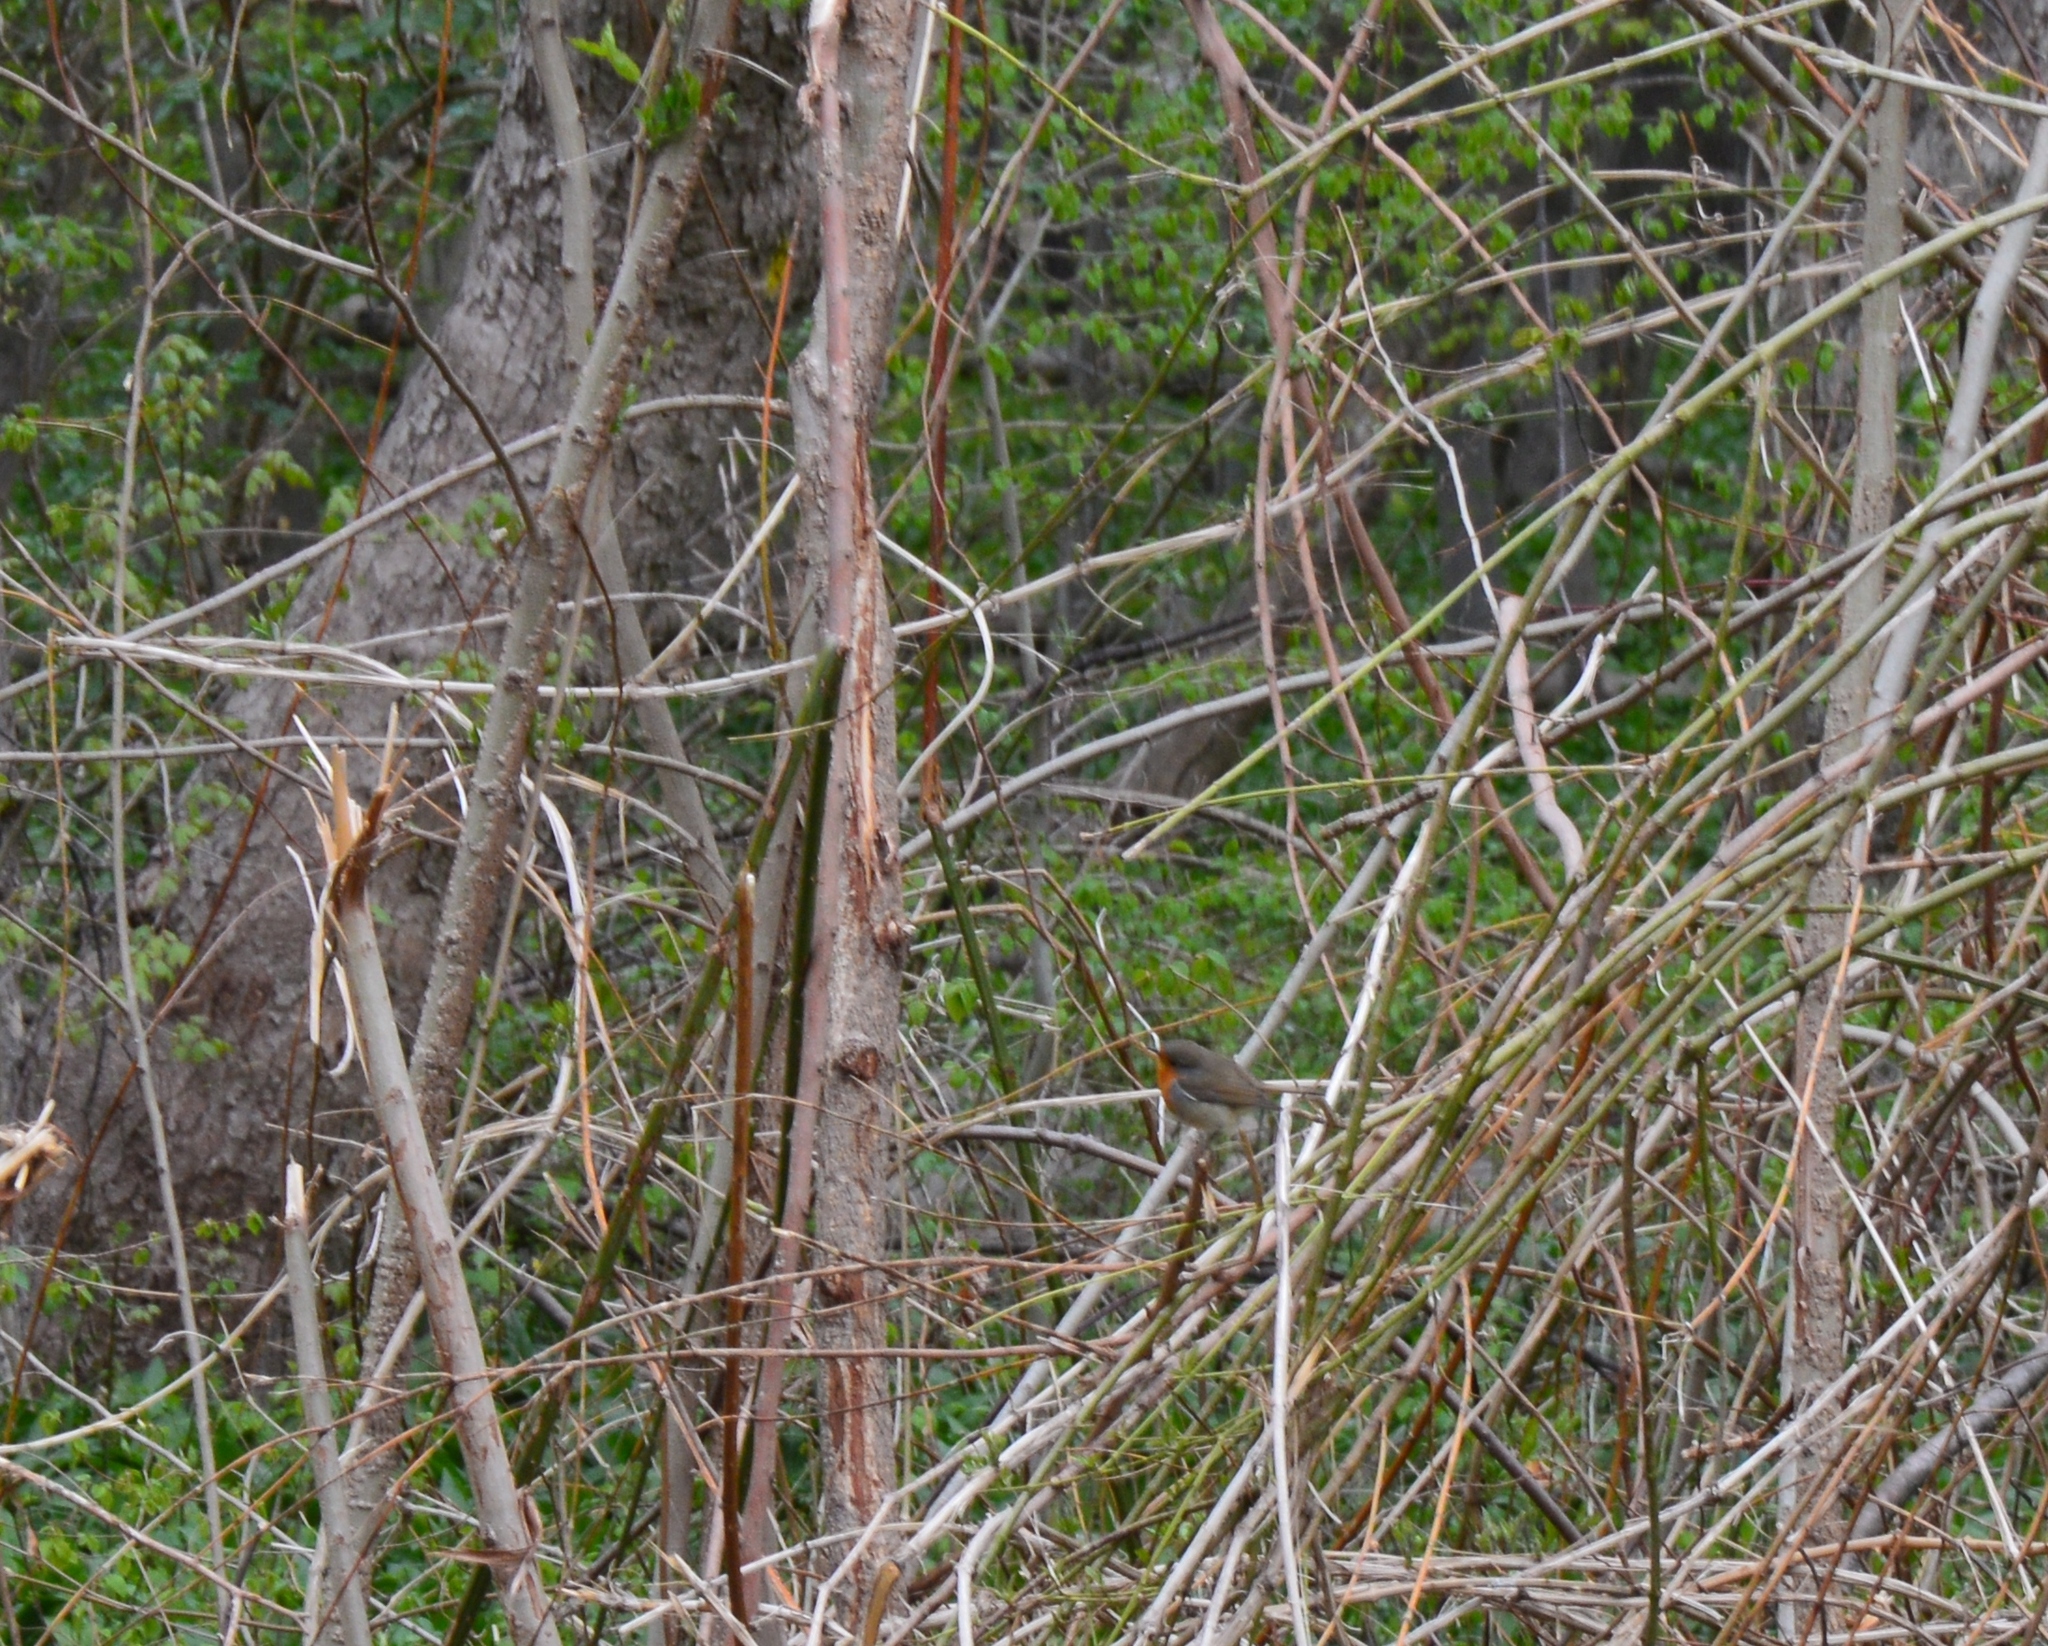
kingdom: Animalia
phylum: Chordata
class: Aves
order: Passeriformes
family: Muscicapidae
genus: Erithacus
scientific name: Erithacus rubecula
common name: European robin
